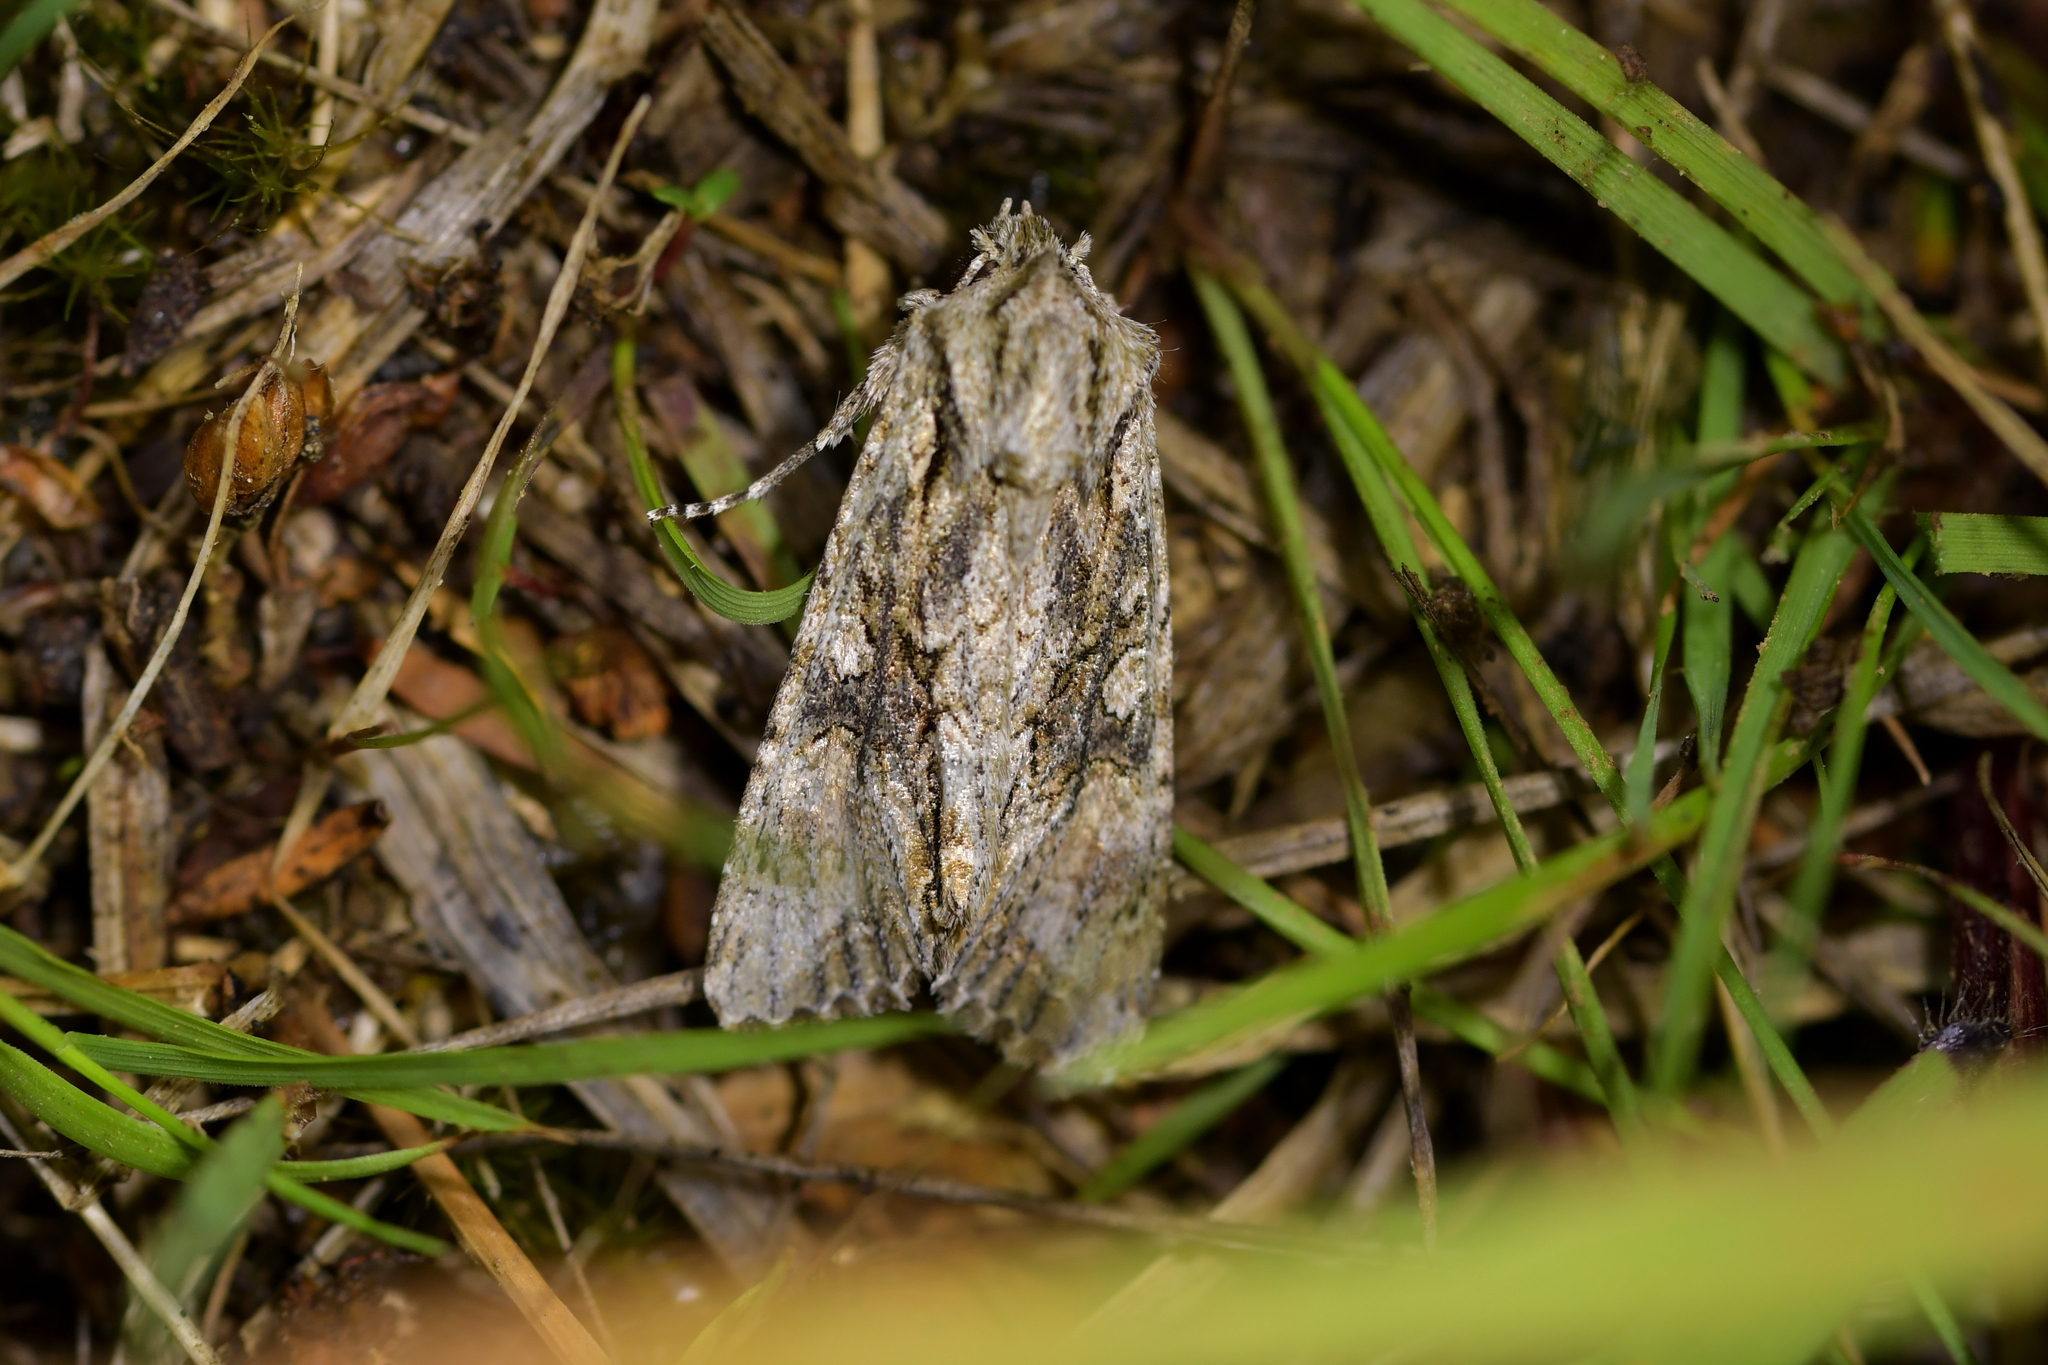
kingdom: Animalia
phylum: Arthropoda
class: Insecta
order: Lepidoptera
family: Noctuidae
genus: Ichneutica
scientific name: Ichneutica mutans
